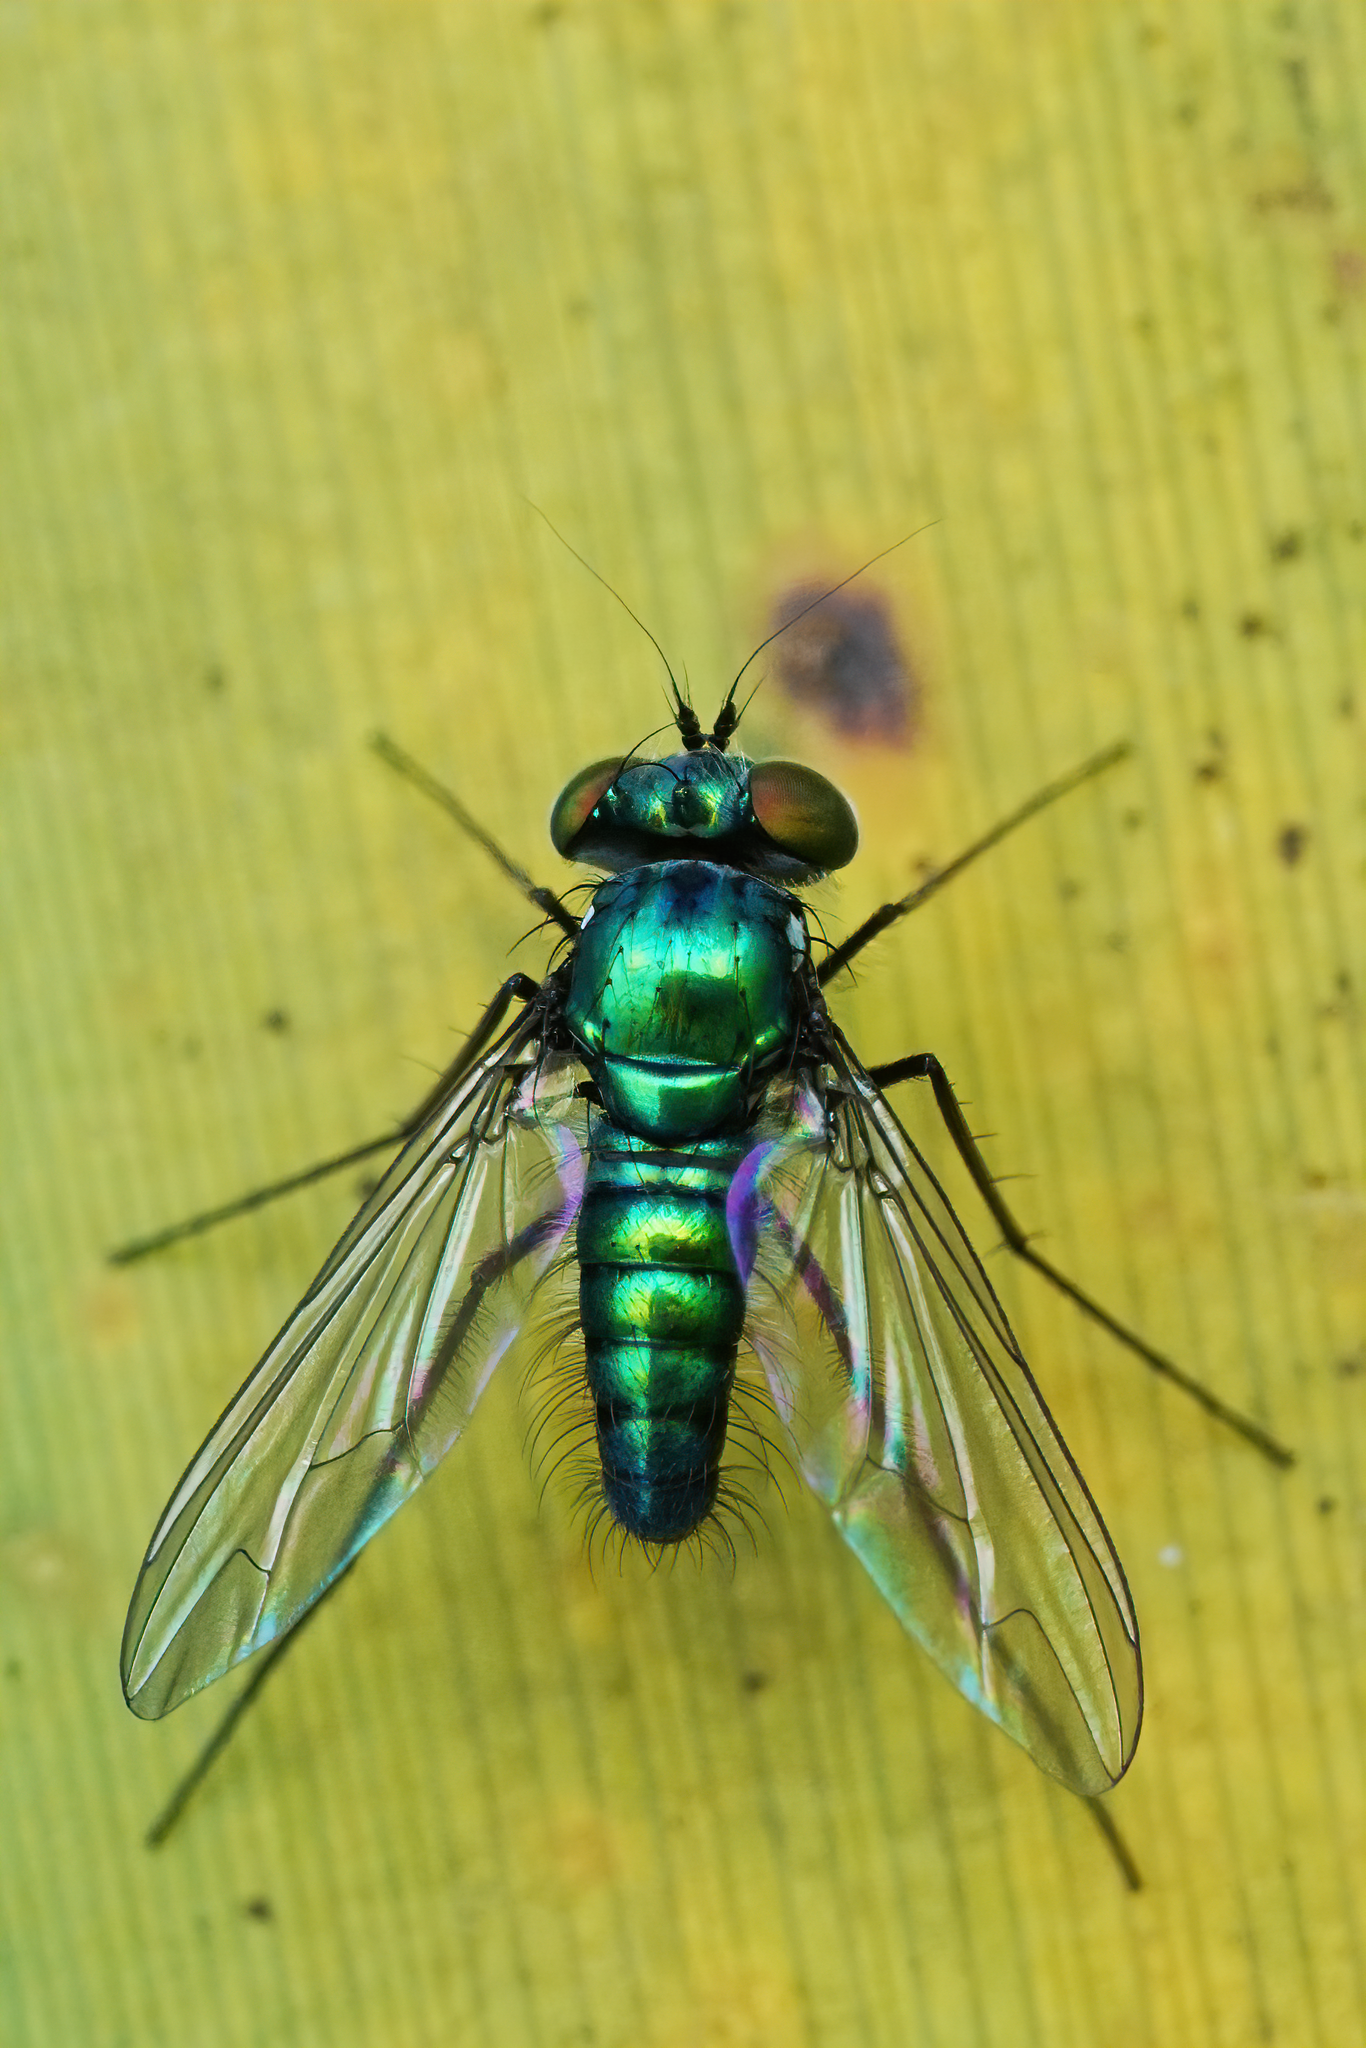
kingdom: Animalia
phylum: Arthropoda
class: Insecta
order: Diptera
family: Dolichopodidae
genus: Condylostylus
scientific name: Condylostylus purpureus
